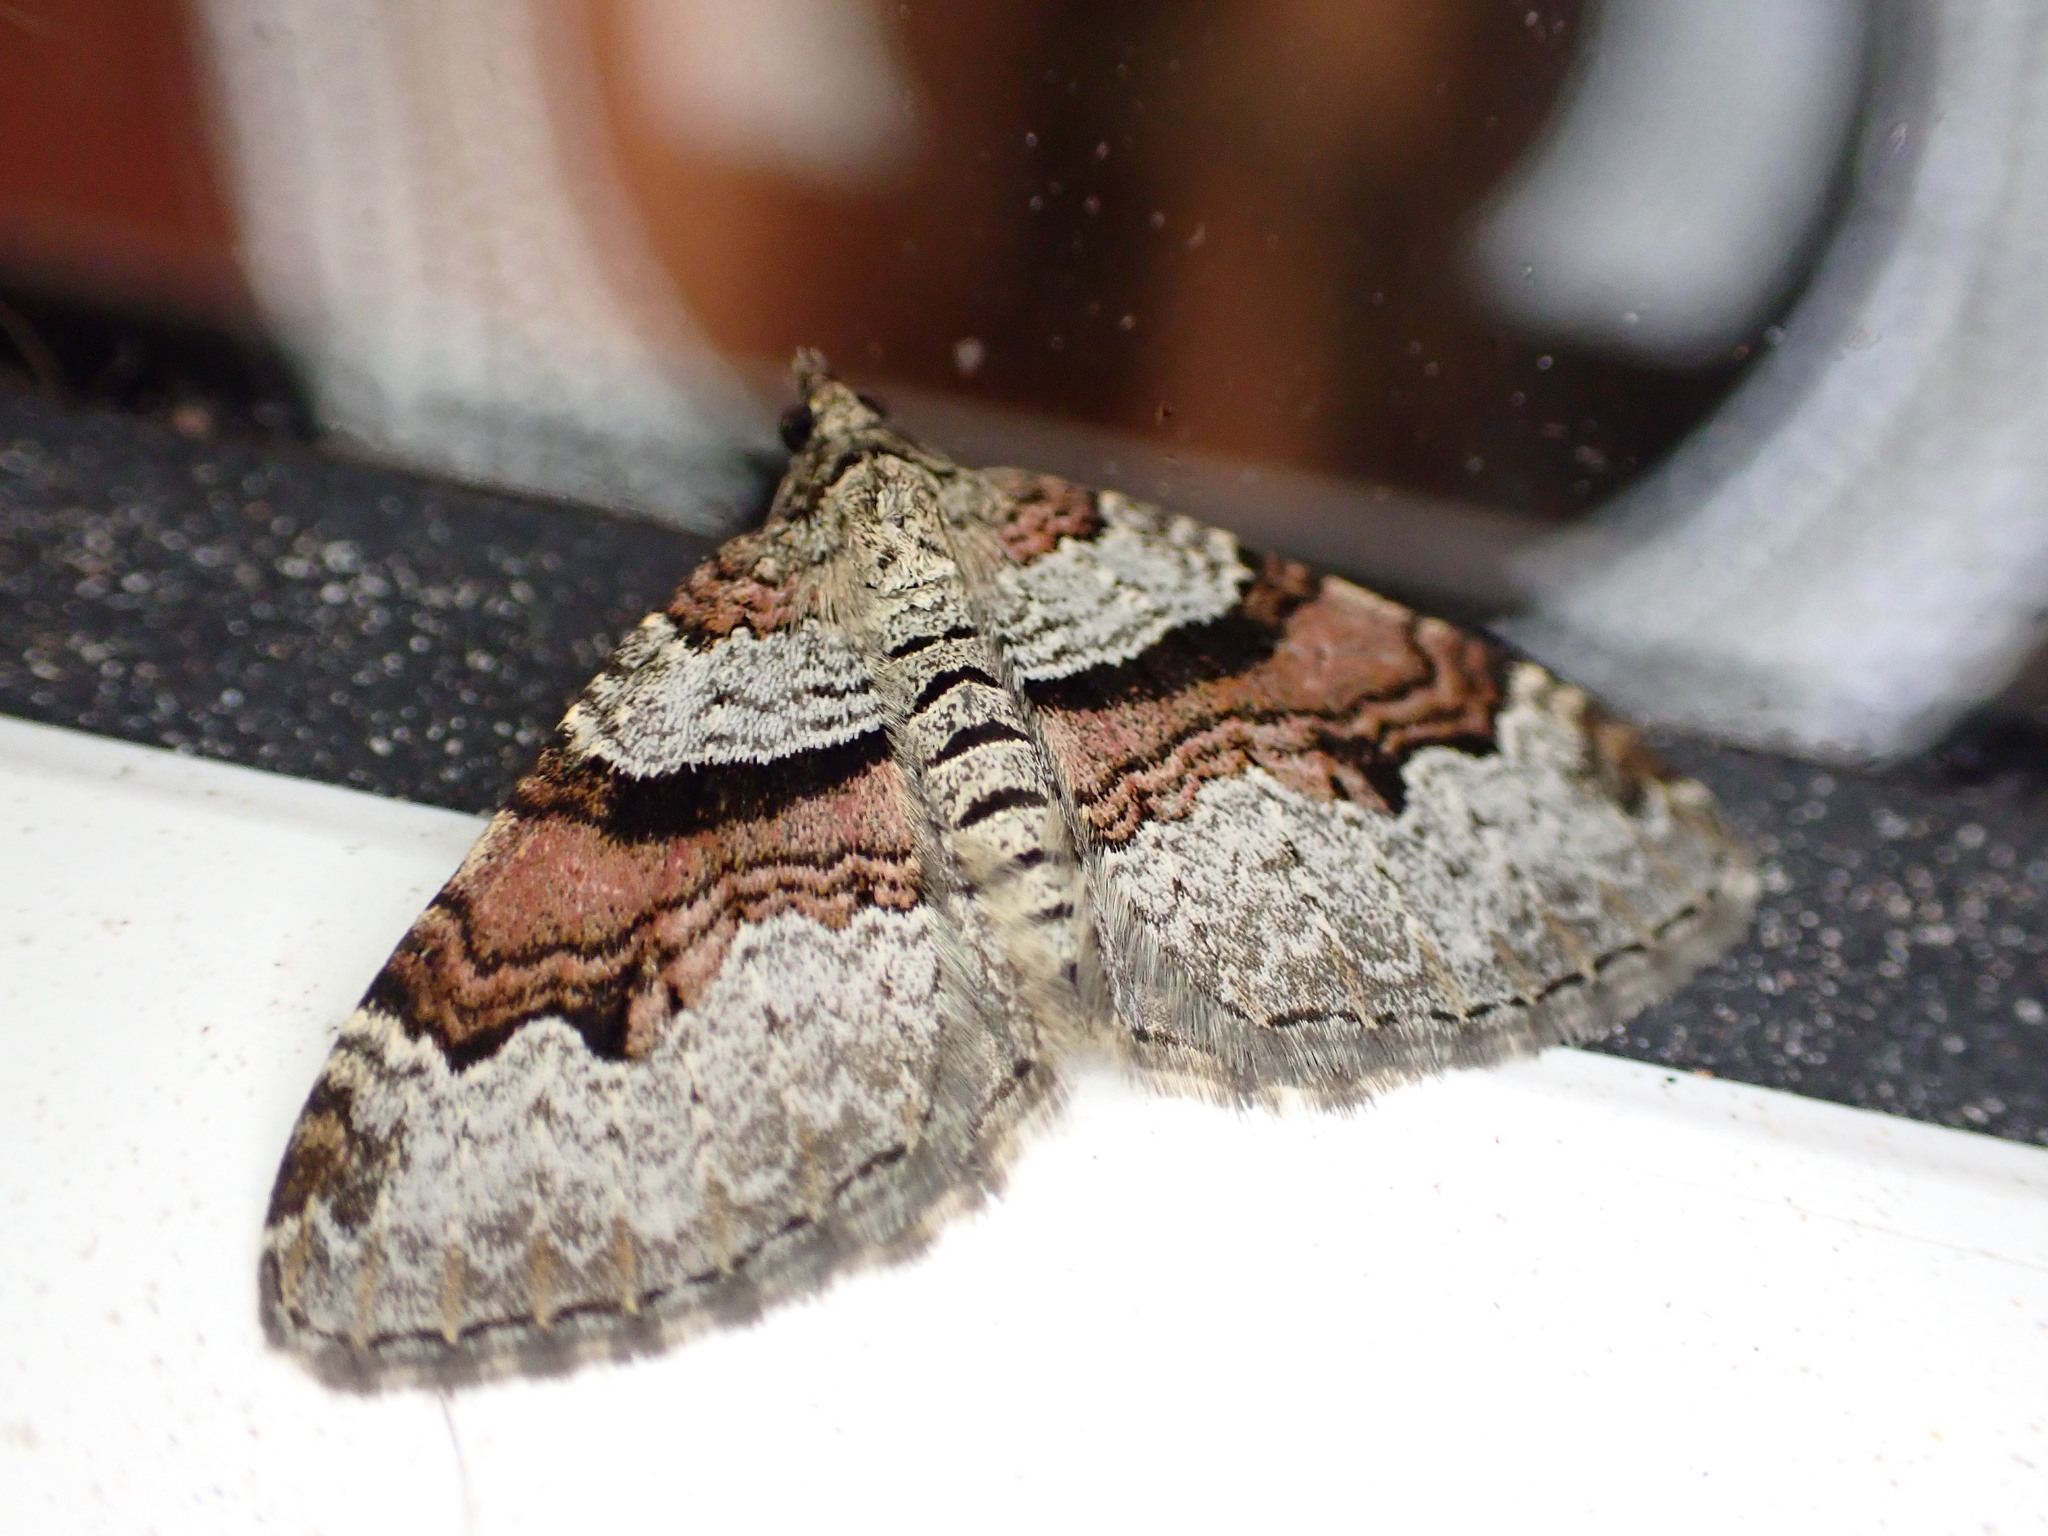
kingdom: Animalia
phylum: Arthropoda
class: Insecta
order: Lepidoptera
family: Geometridae
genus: Xanthorhoe
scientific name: Xanthorhoe designata
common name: Flame carpet
